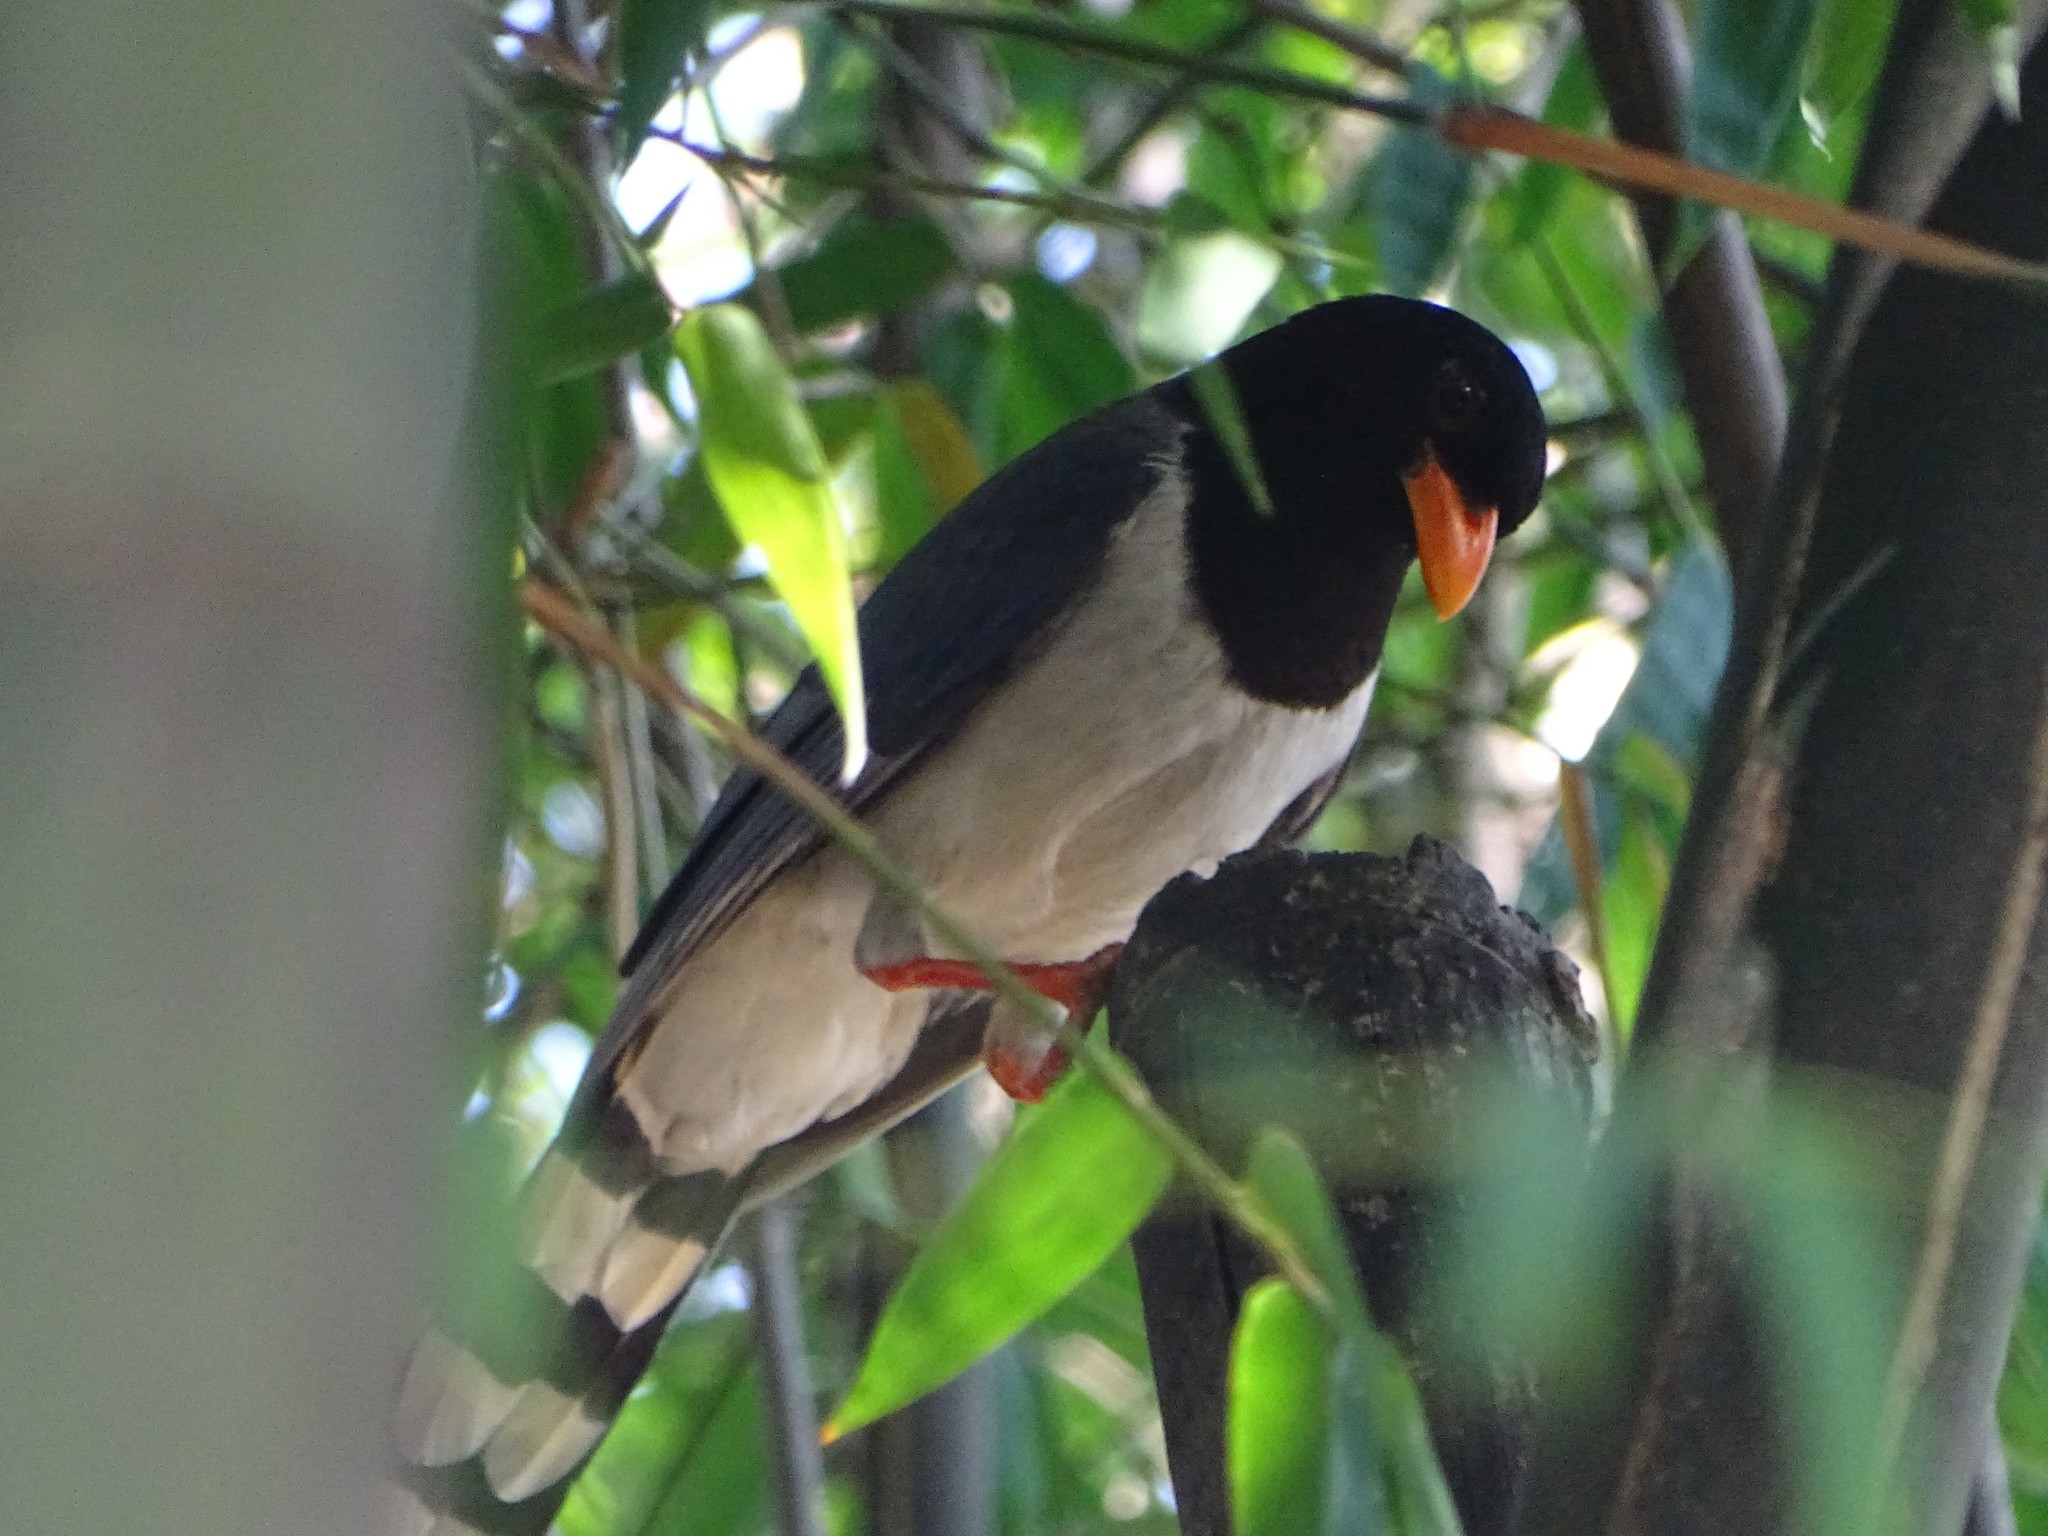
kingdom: Animalia
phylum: Chordata
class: Aves
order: Passeriformes
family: Corvidae
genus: Urocissa
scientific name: Urocissa erythroryncha
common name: Red-billed blue magpie
